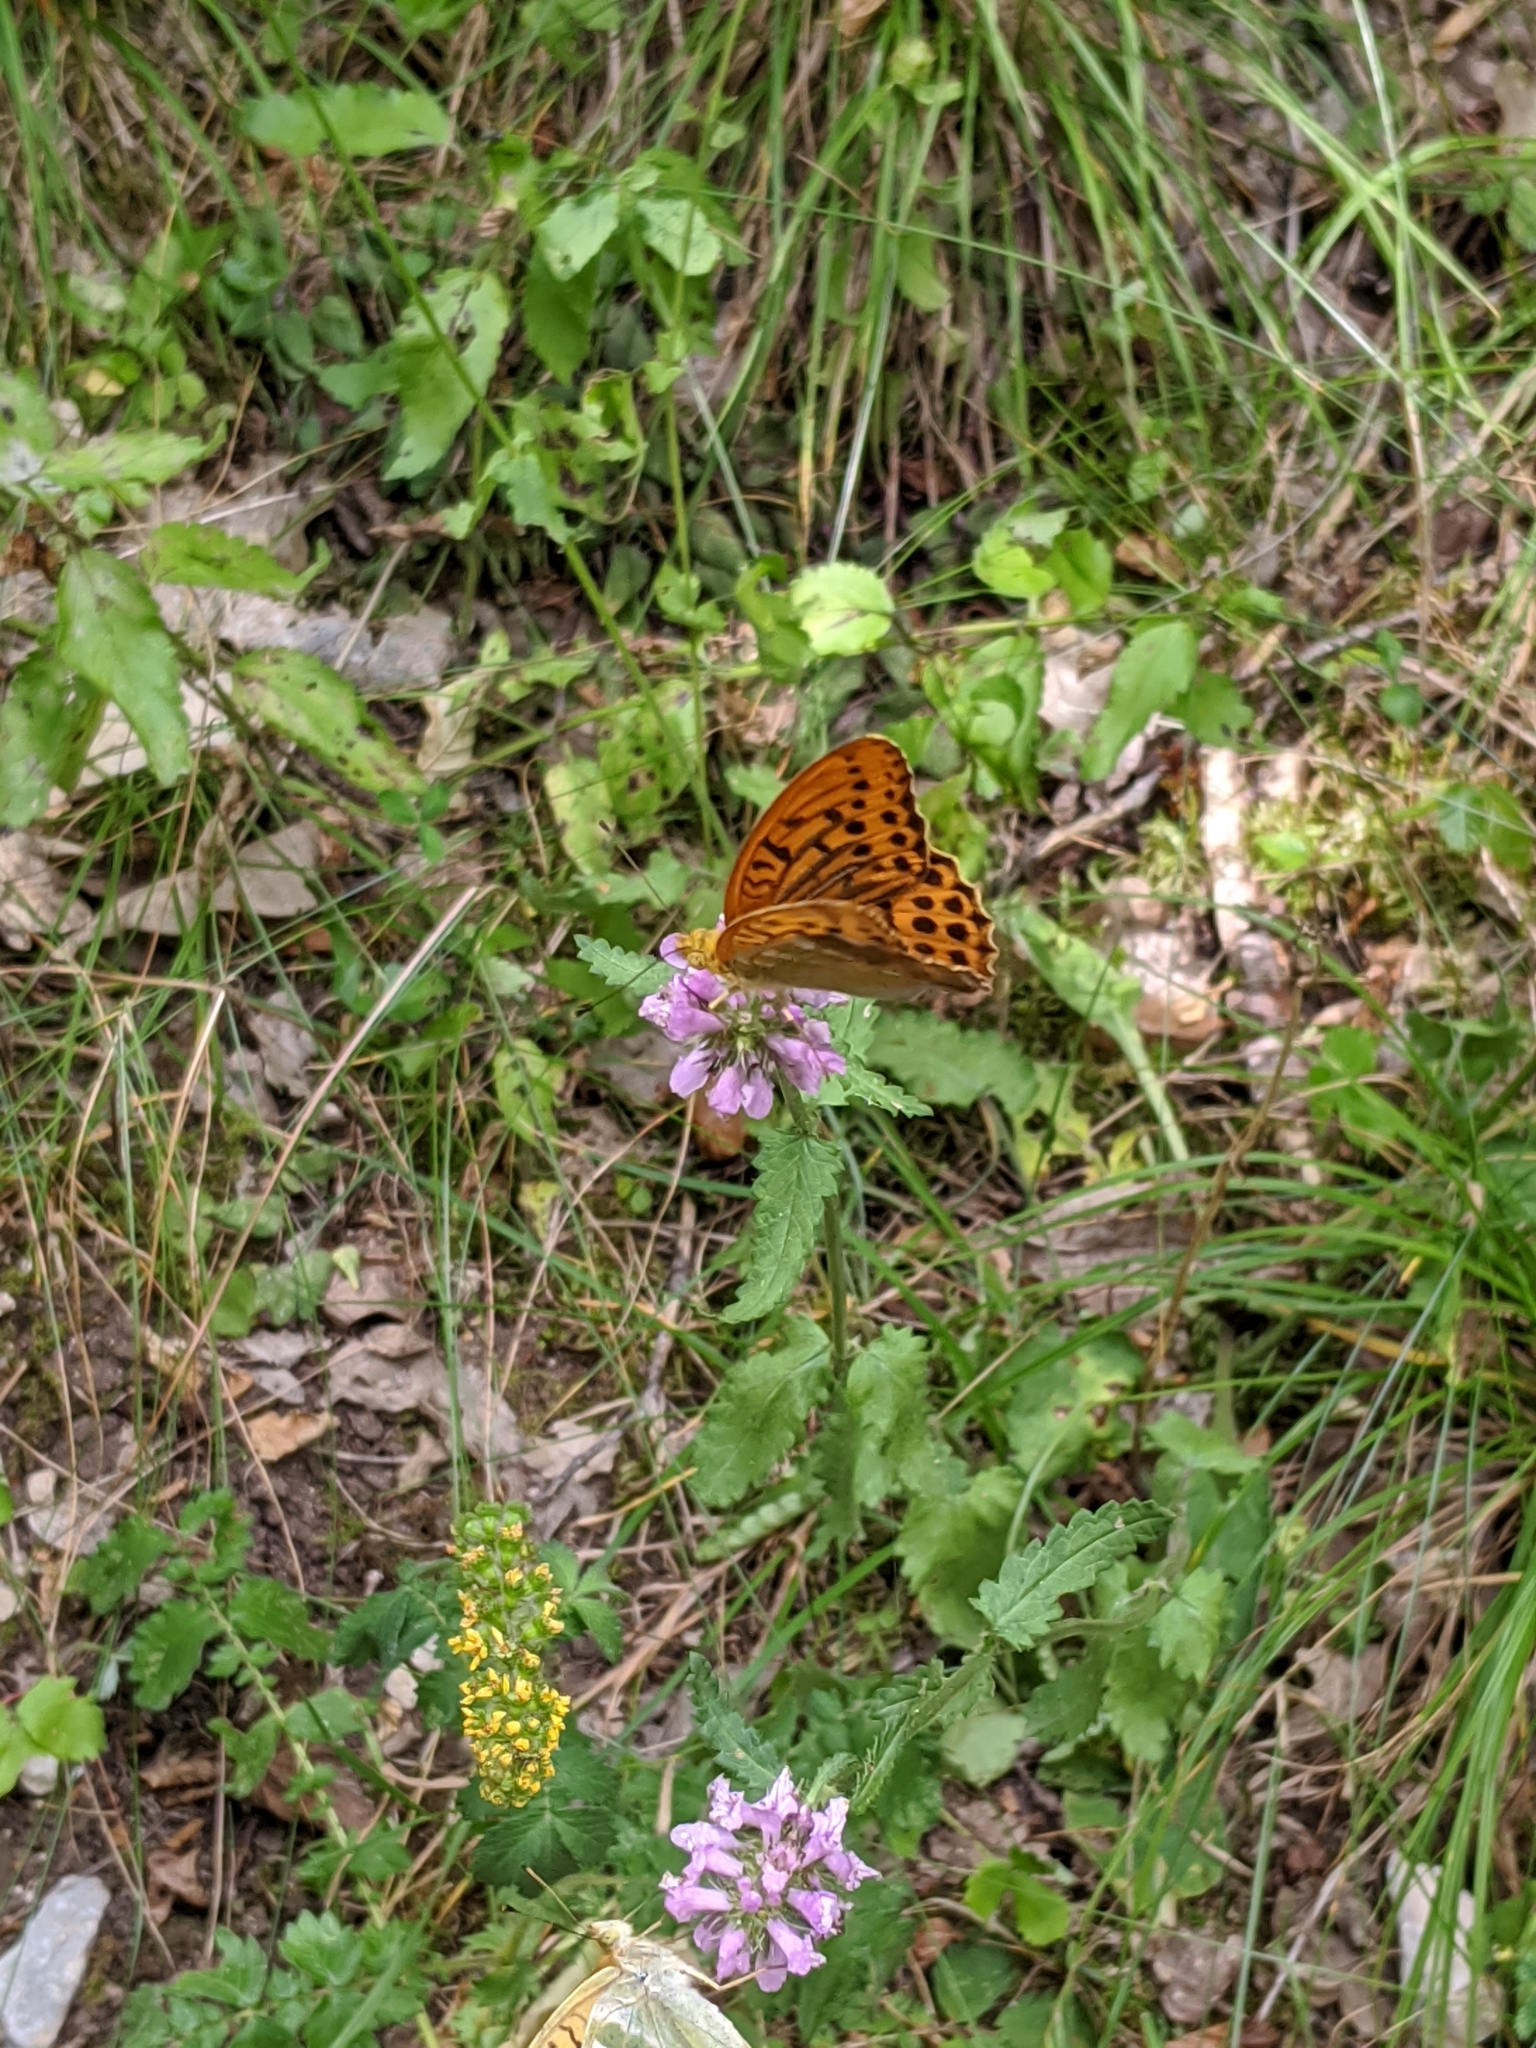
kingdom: Animalia
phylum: Arthropoda
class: Insecta
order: Lepidoptera
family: Nymphalidae
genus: Argynnis
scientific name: Argynnis paphia
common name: Silver-washed fritillary
